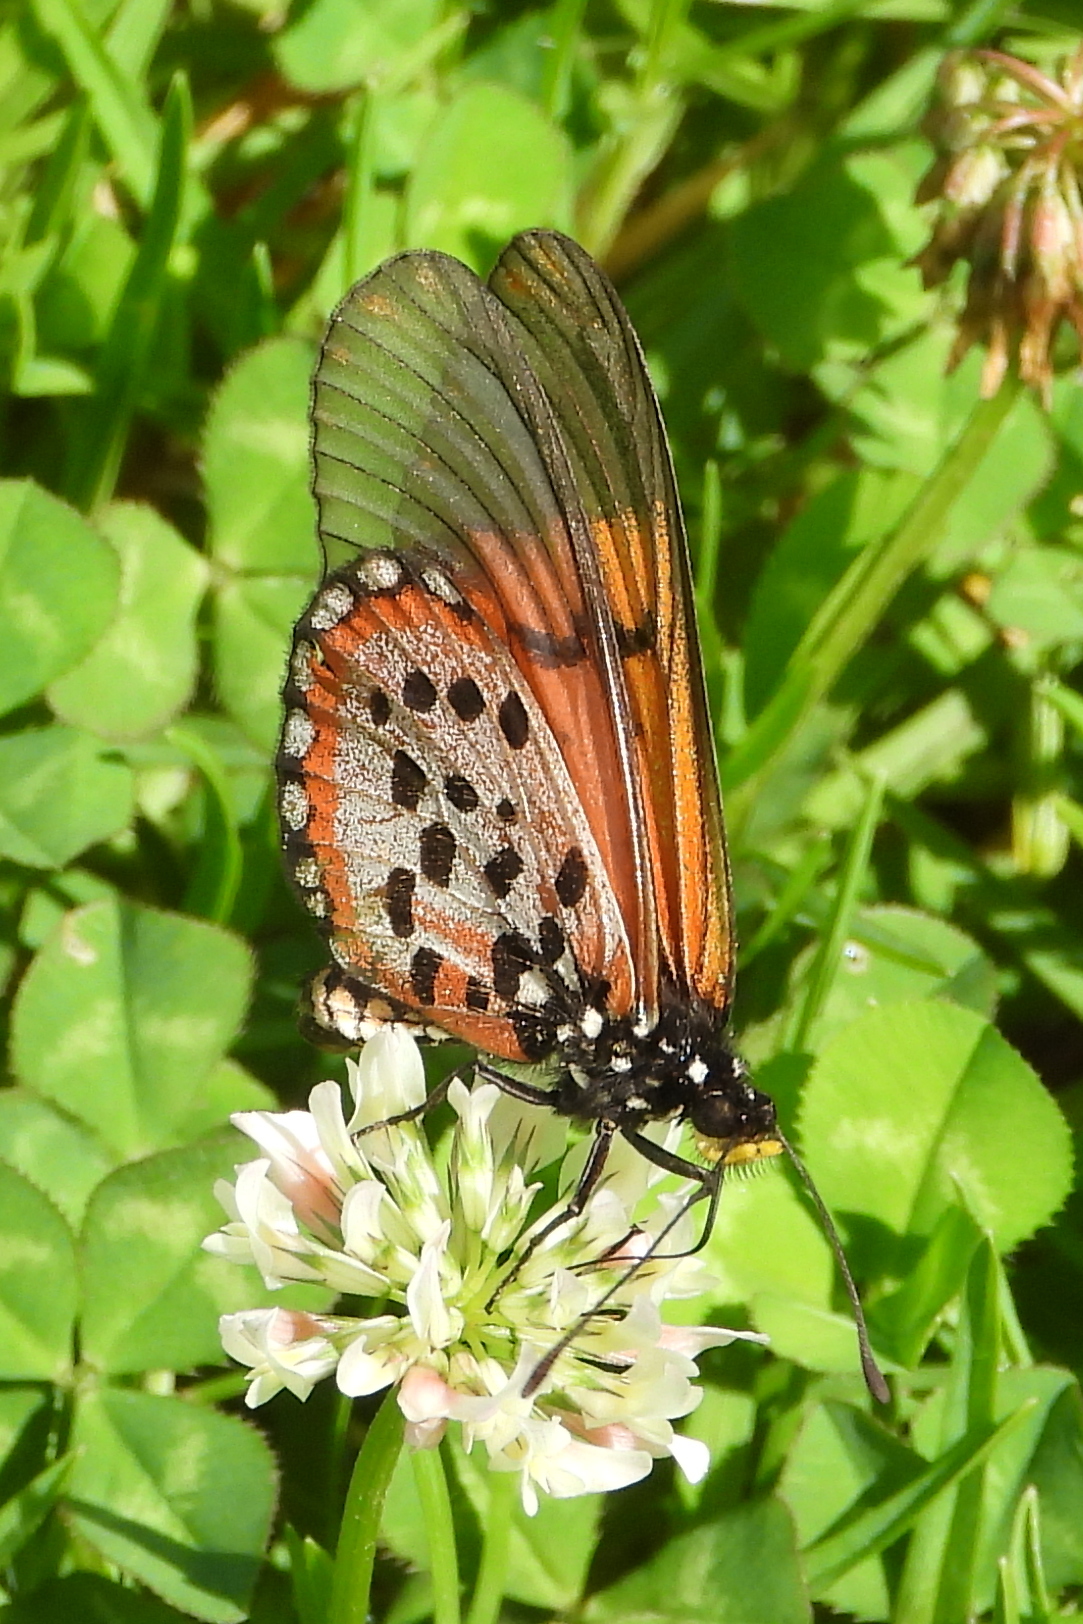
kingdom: Animalia
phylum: Arthropoda
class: Insecta
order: Lepidoptera
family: Nymphalidae
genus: Acraea
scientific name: Acraea horta
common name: Garden acraea
